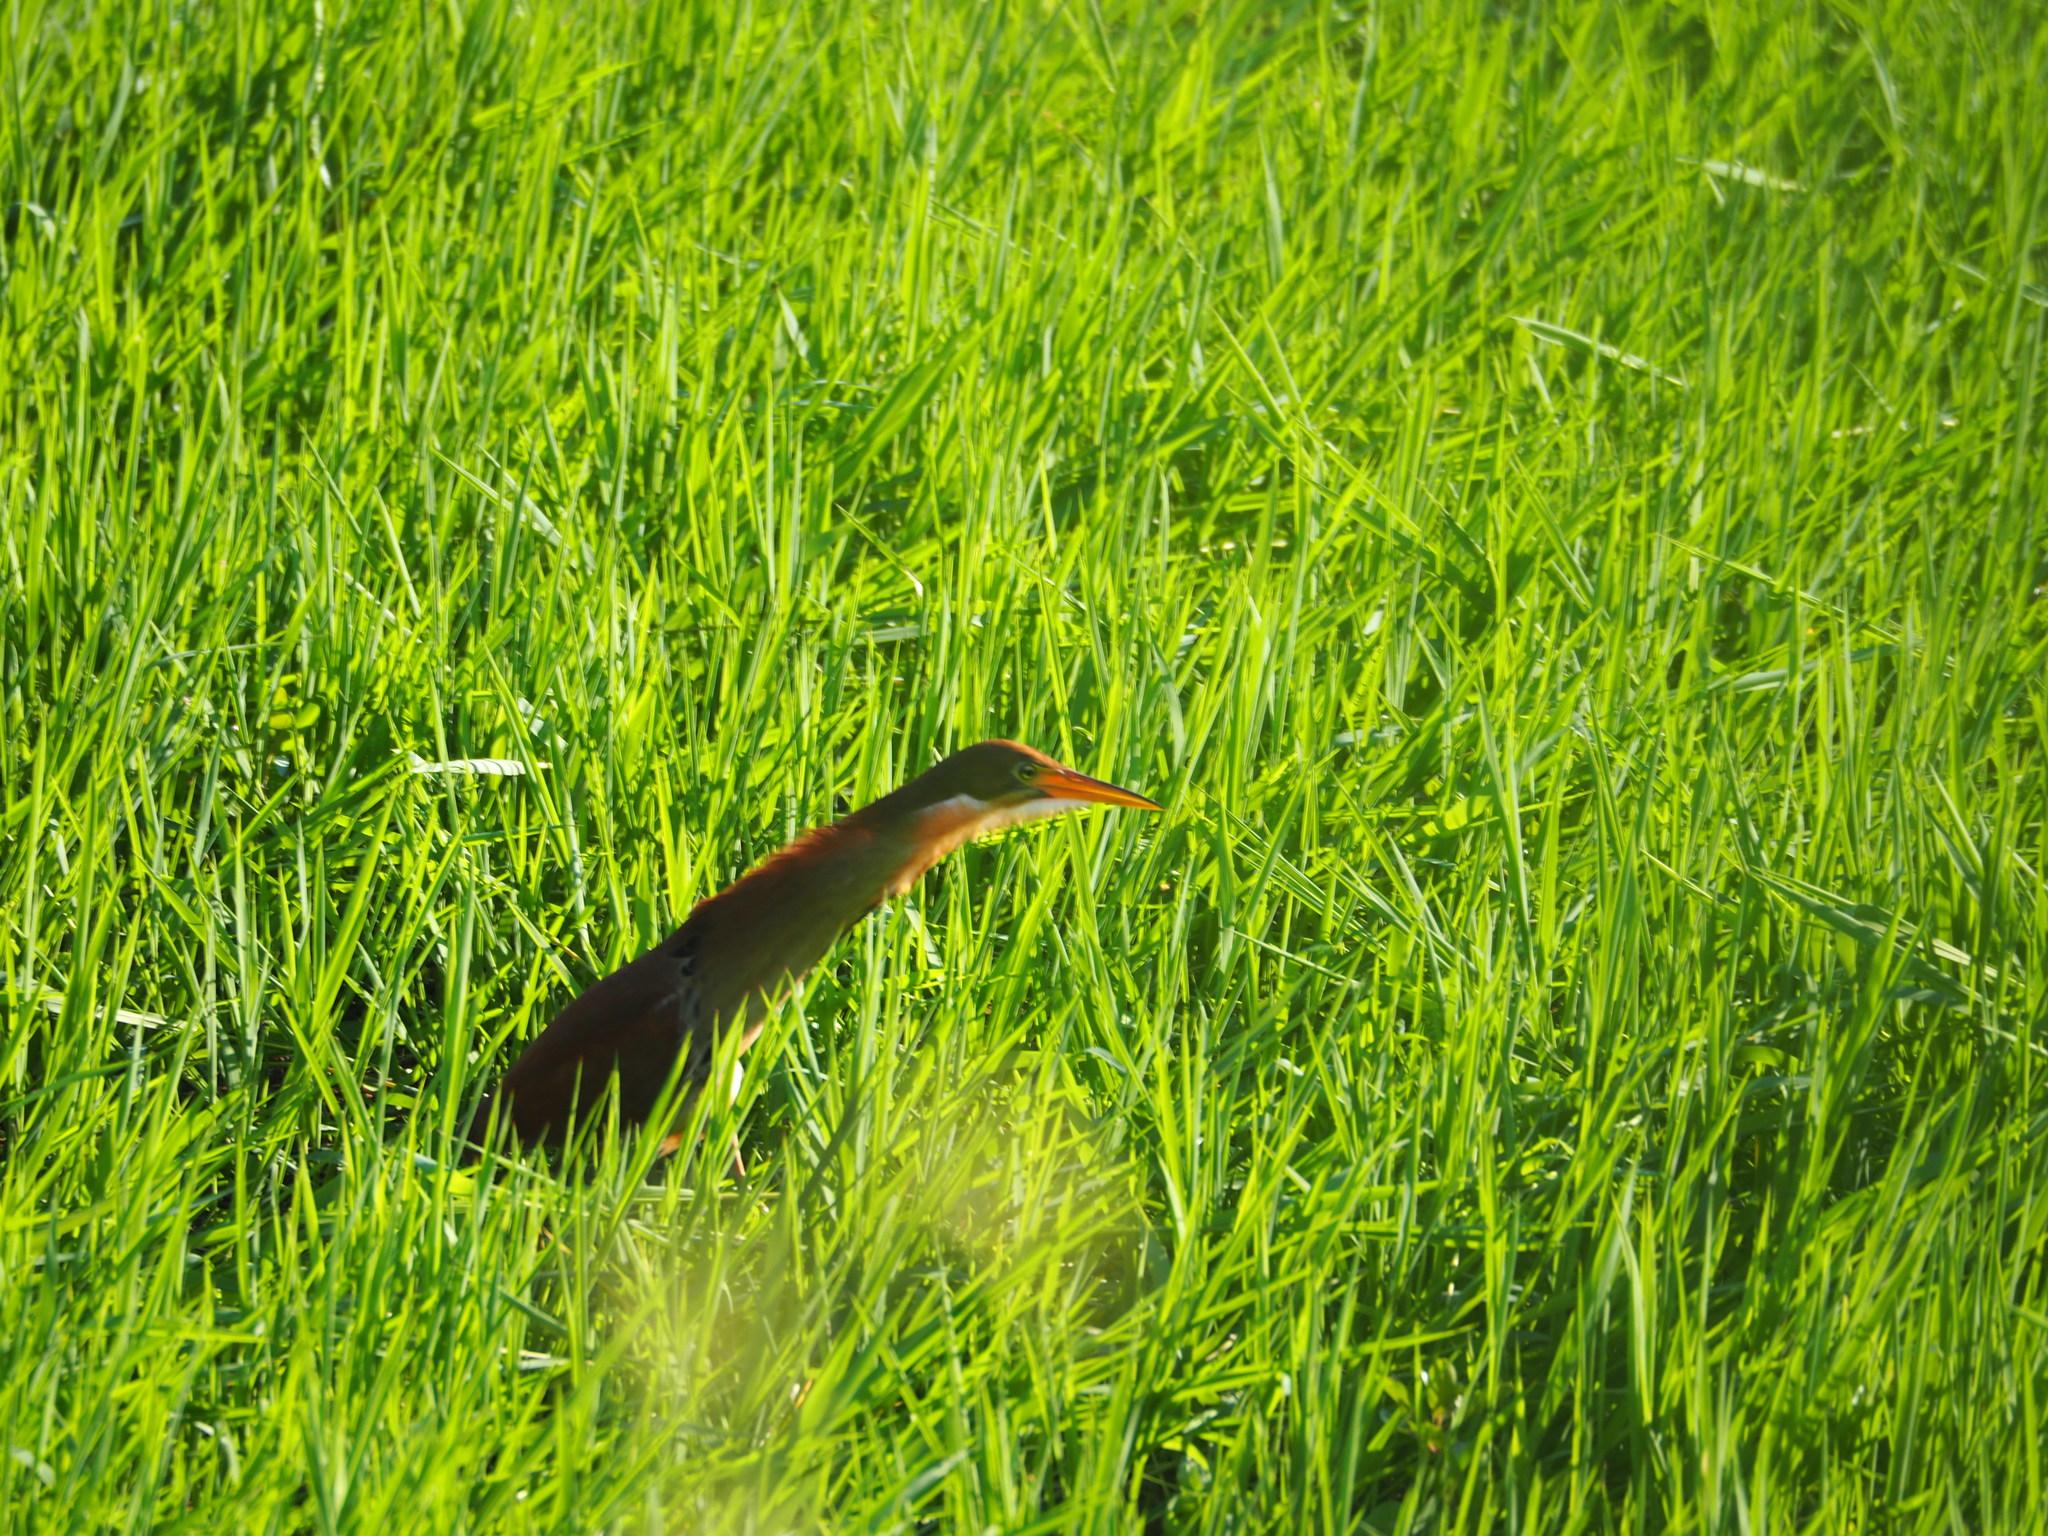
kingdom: Animalia
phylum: Chordata
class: Aves
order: Pelecaniformes
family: Ardeidae
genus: Ixobrychus
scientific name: Ixobrychus cinnamomeus
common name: Cinnamon bittern
